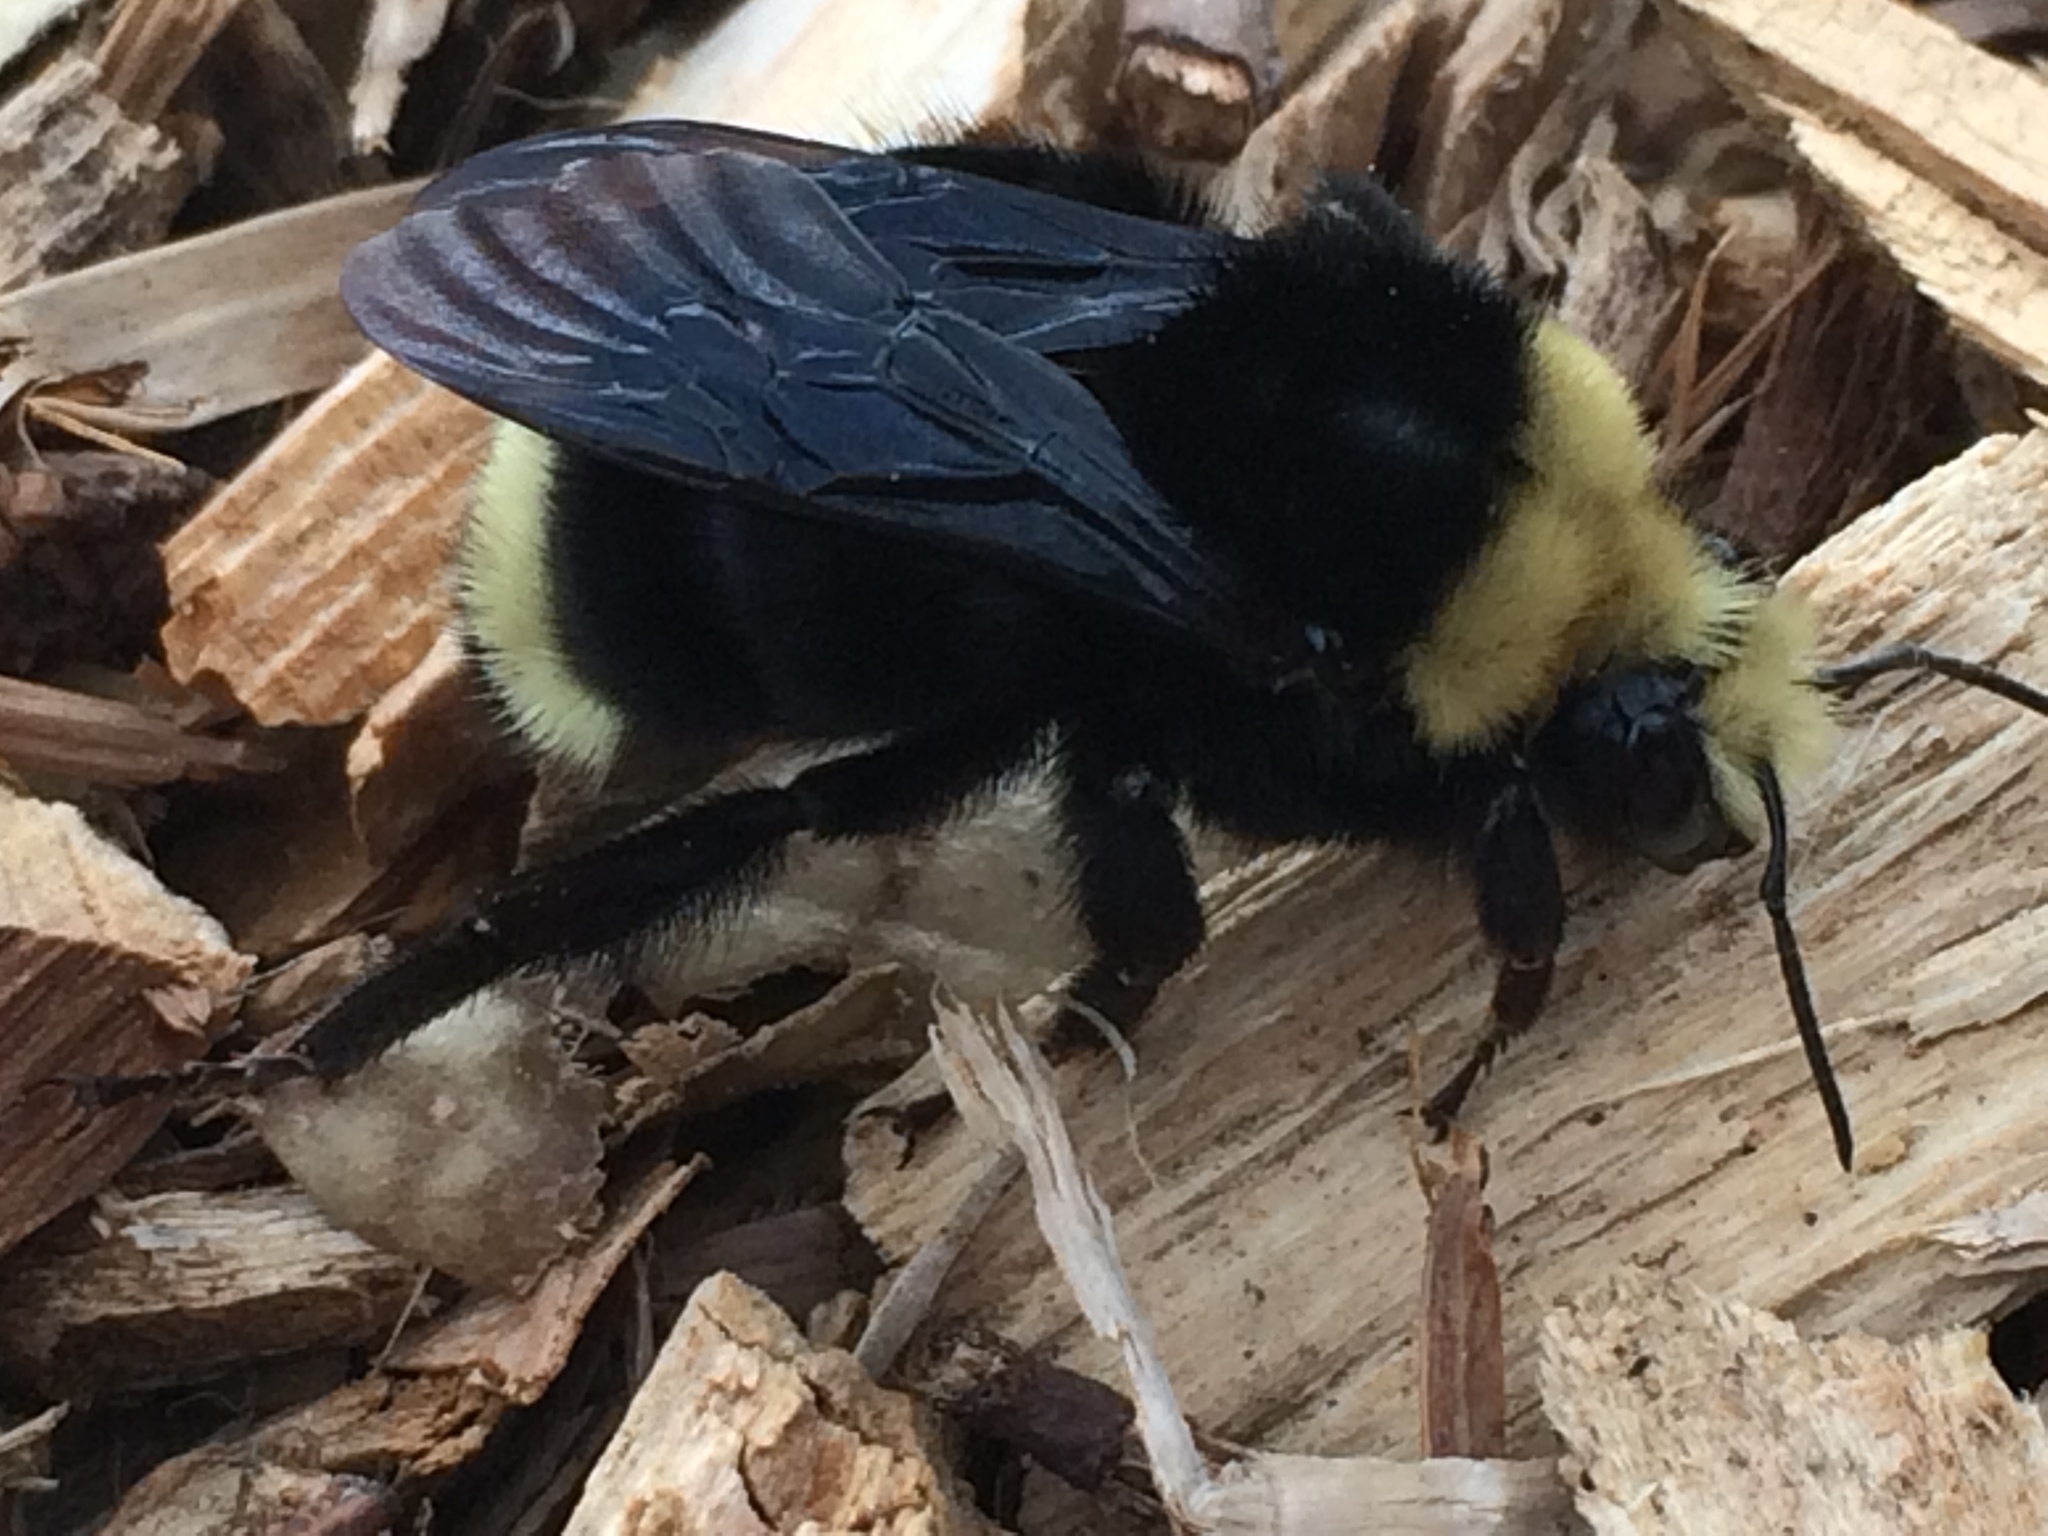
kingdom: Animalia
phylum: Arthropoda
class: Insecta
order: Hymenoptera
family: Apidae
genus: Pyrobombus
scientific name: Pyrobombus
